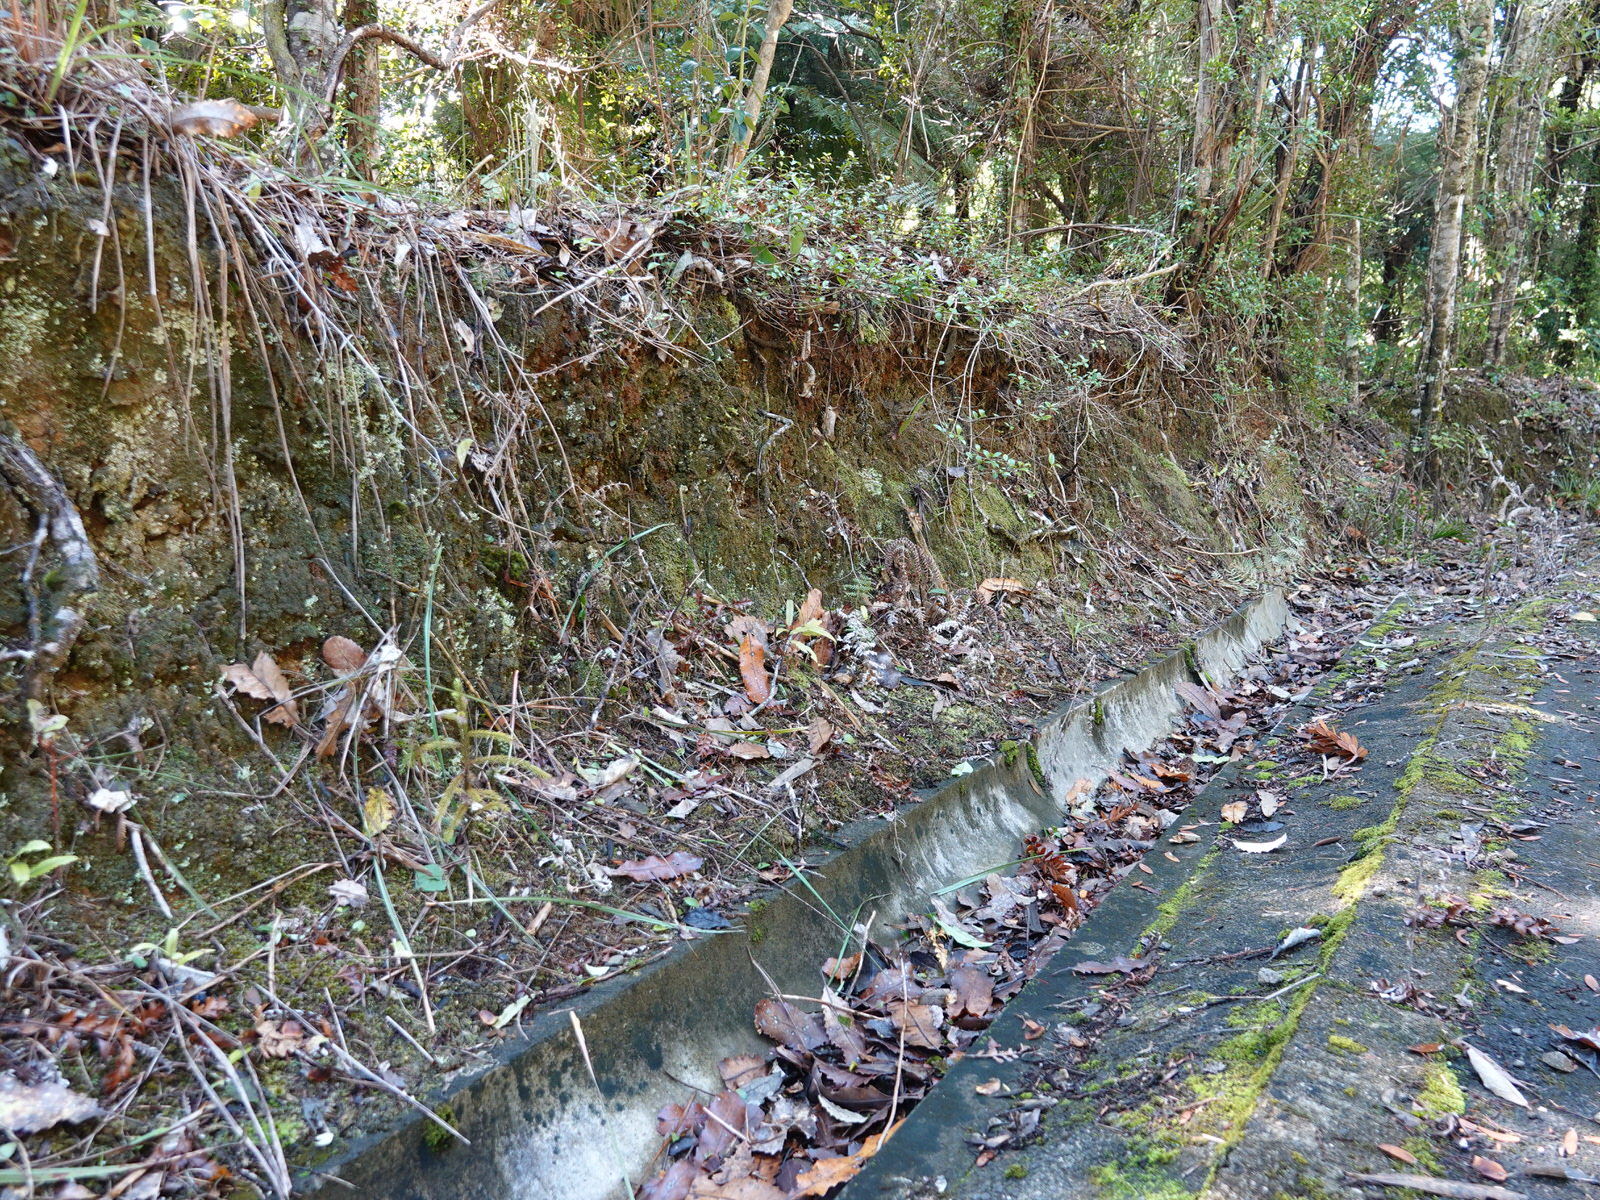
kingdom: Plantae
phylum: Tracheophyta
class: Pinopsida
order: Pinales
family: Podocarpaceae
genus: Dacrydium
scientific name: Dacrydium cupressinum
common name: Red pine
